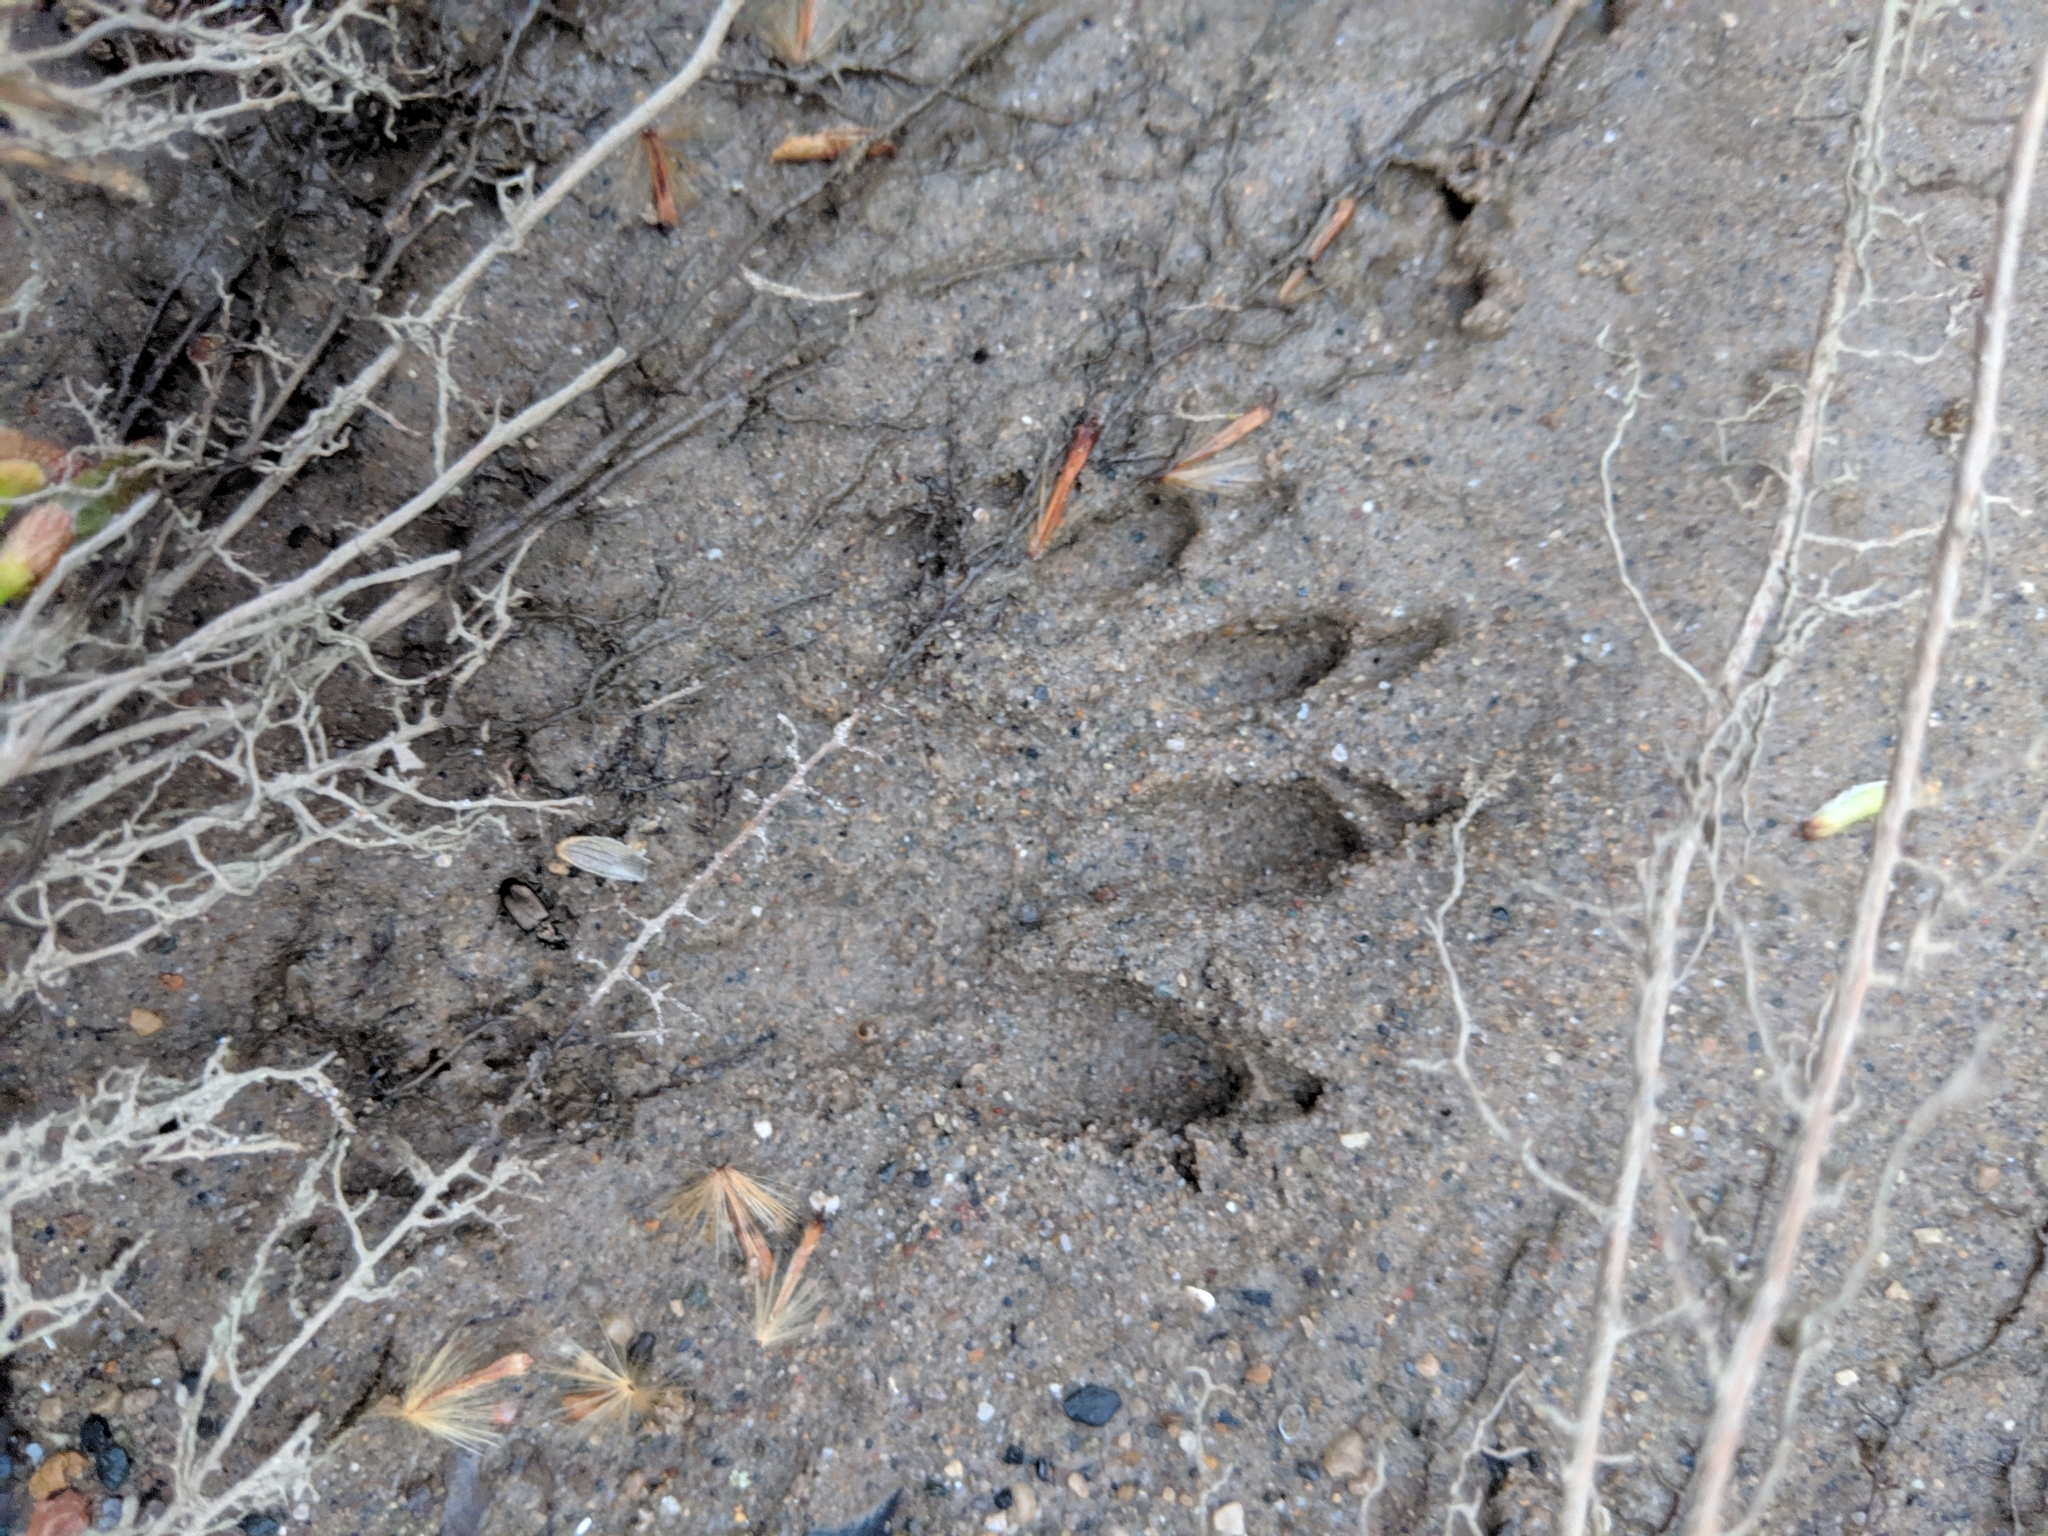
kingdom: Animalia
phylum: Chordata
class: Mammalia
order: Carnivora
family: Procyonidae
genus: Procyon
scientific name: Procyon lotor
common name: Raccoon
